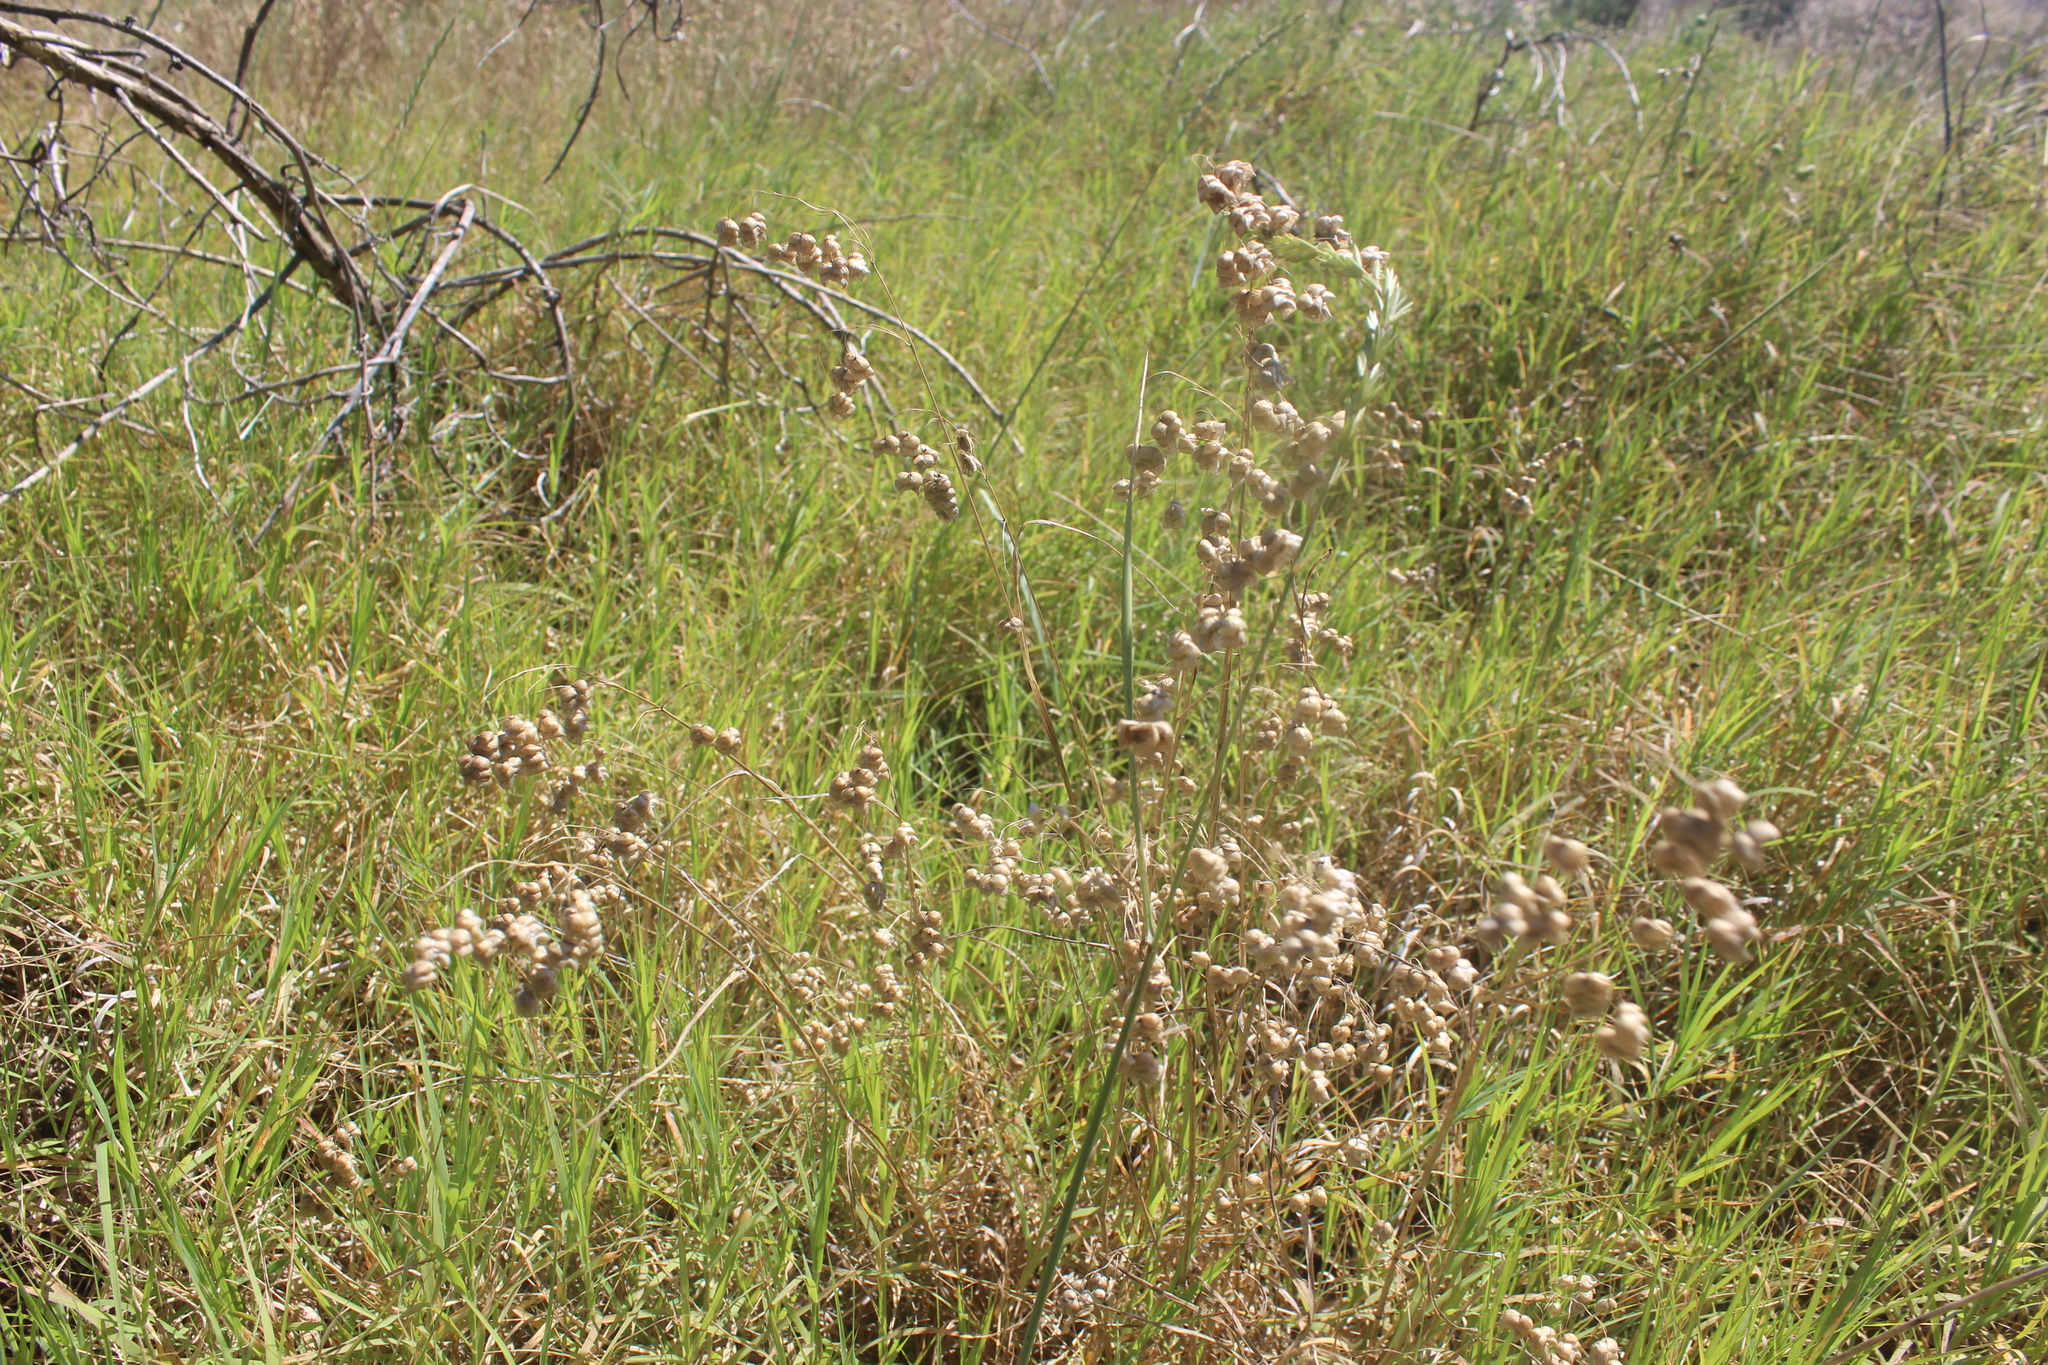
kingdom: Plantae
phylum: Tracheophyta
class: Liliopsida
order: Poales
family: Poaceae
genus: Briza
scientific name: Briza minor
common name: Lesser quaking-grass
